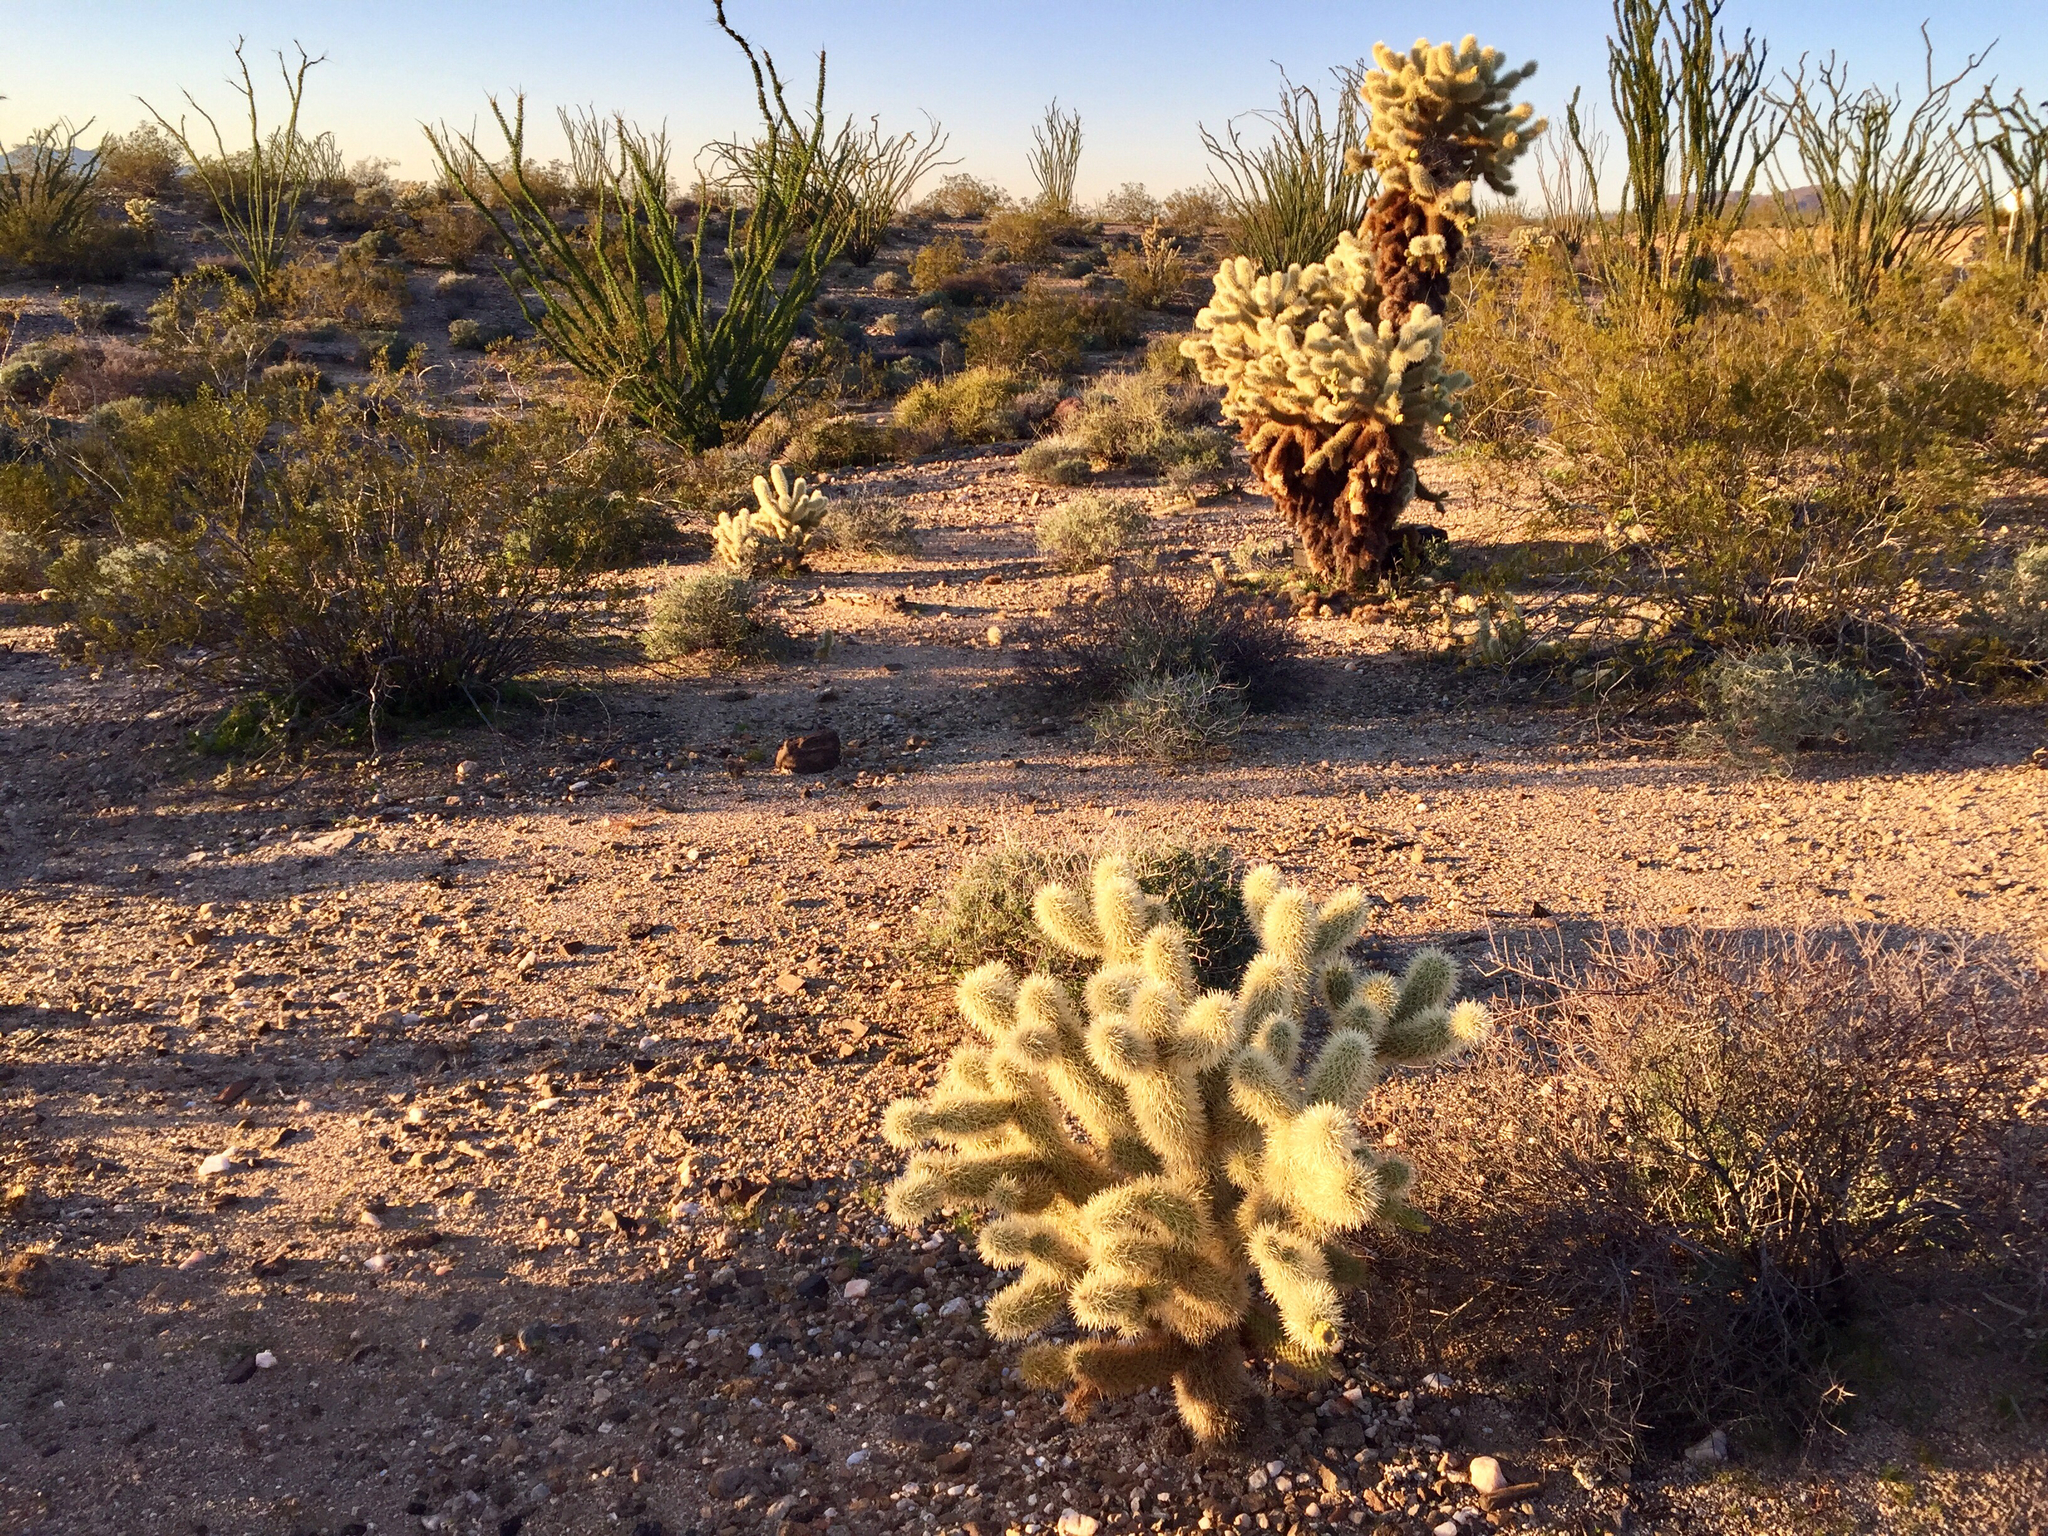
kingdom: Plantae
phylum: Tracheophyta
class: Magnoliopsida
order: Caryophyllales
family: Cactaceae
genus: Cylindropuntia
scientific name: Cylindropuntia fosbergii
